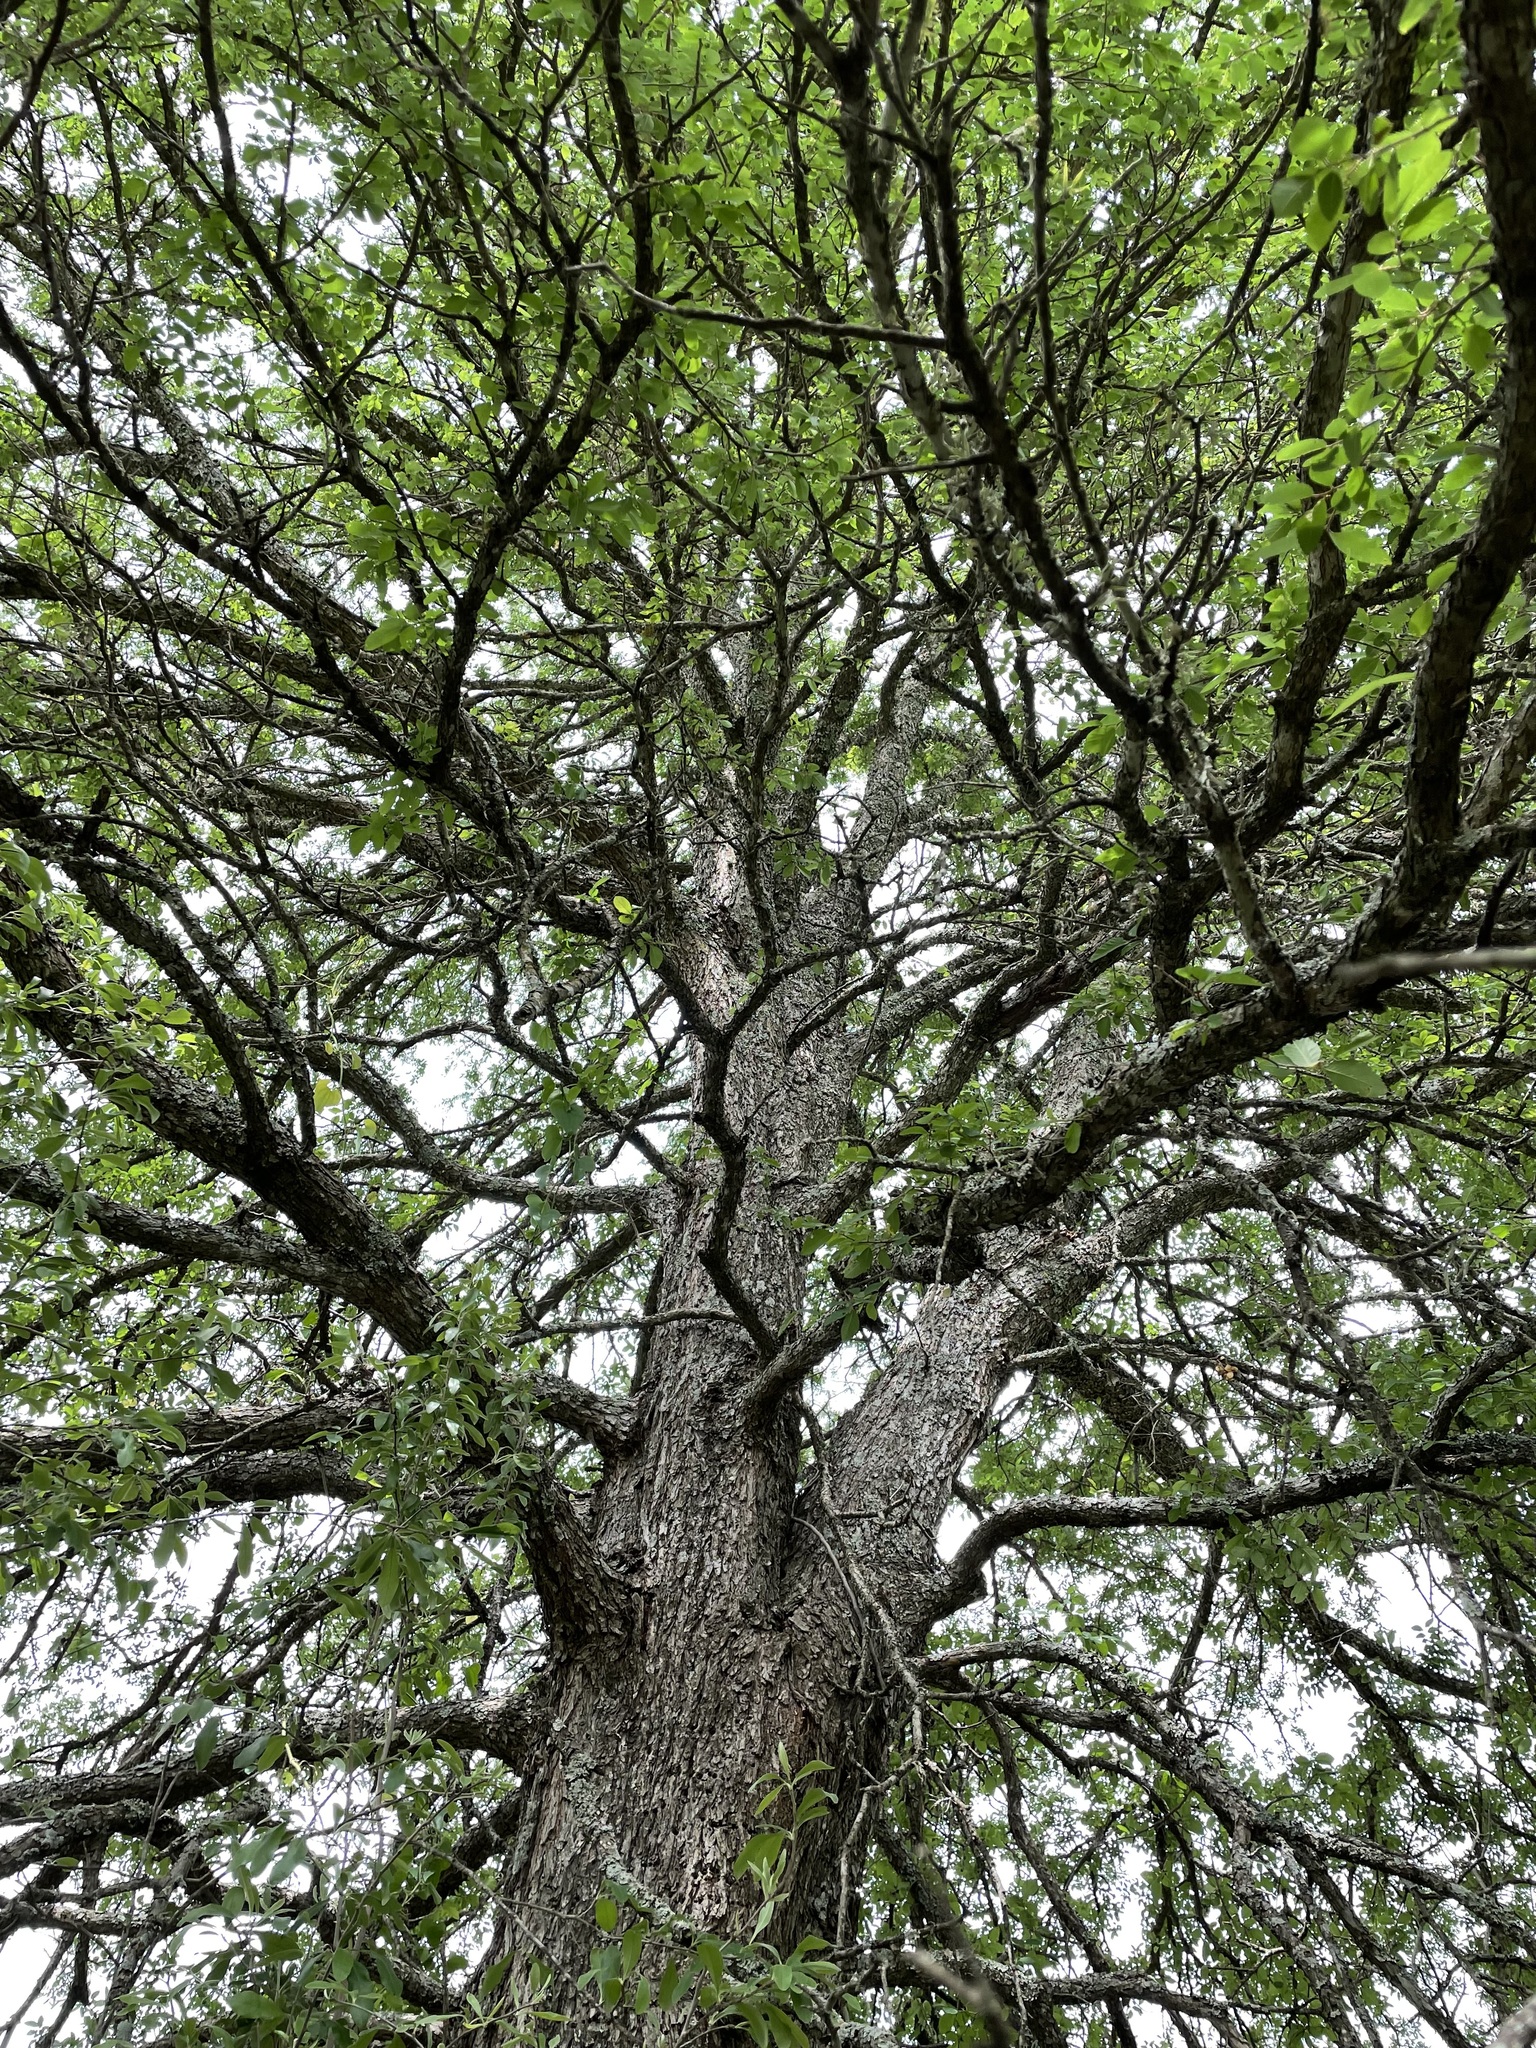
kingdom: Plantae
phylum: Tracheophyta
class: Magnoliopsida
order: Rosales
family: Ulmaceae
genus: Ulmus
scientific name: Ulmus crassifolia
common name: Basket elm
